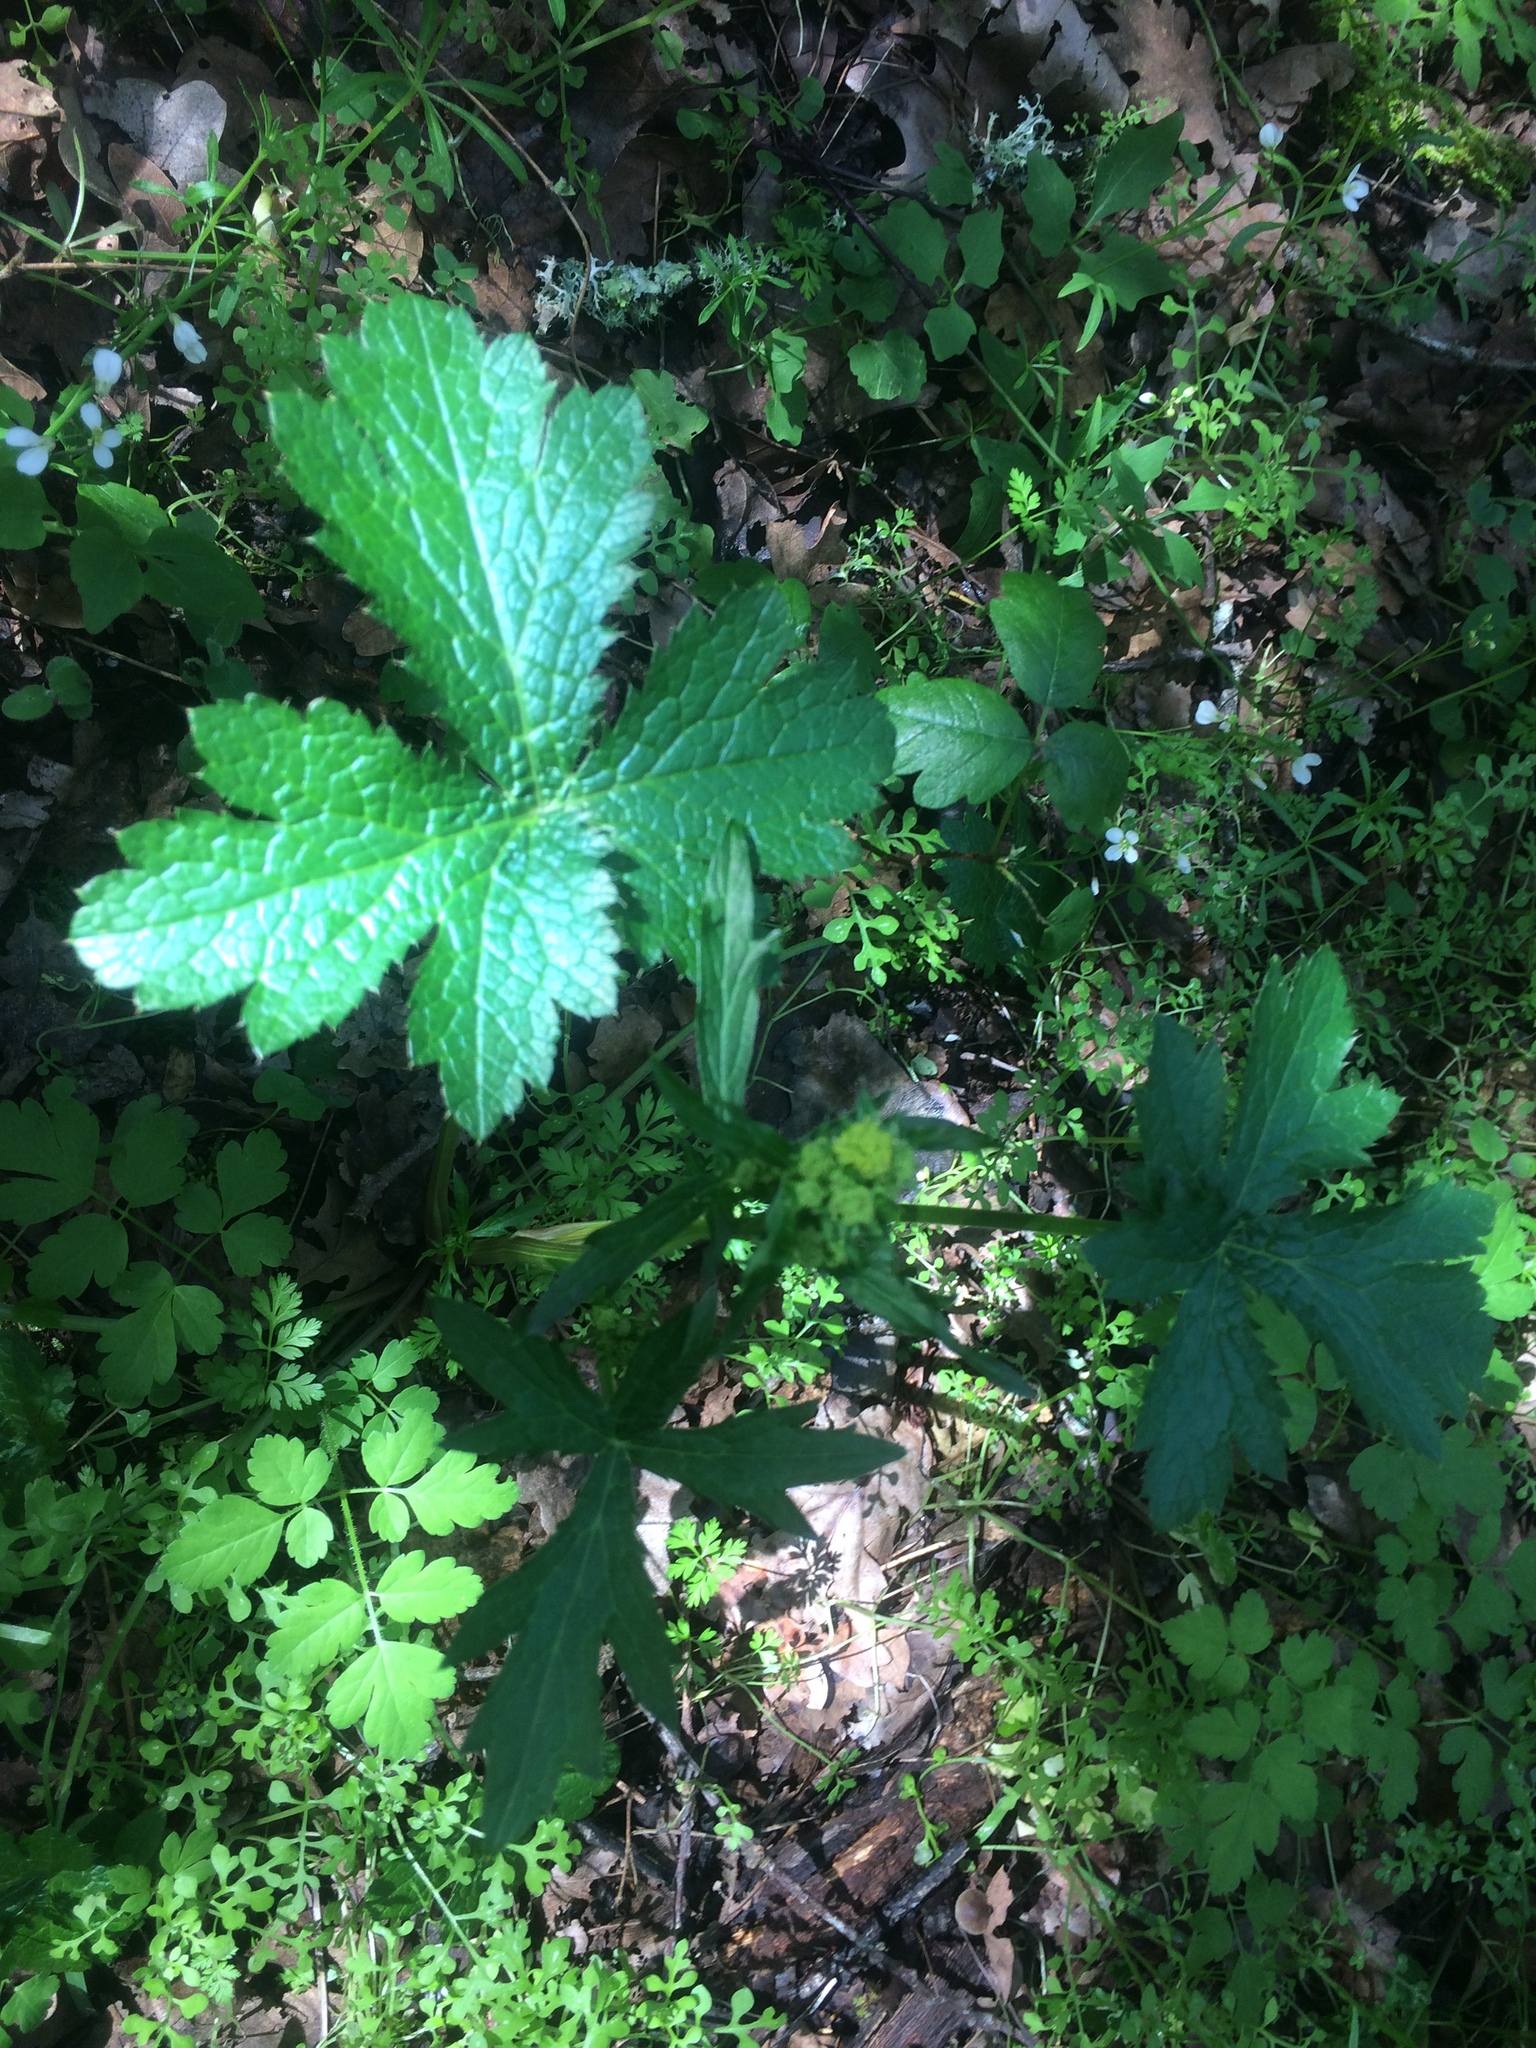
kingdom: Plantae
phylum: Tracheophyta
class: Magnoliopsida
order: Apiales
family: Apiaceae
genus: Sanicula
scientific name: Sanicula crassicaulis
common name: Western snakeroot
